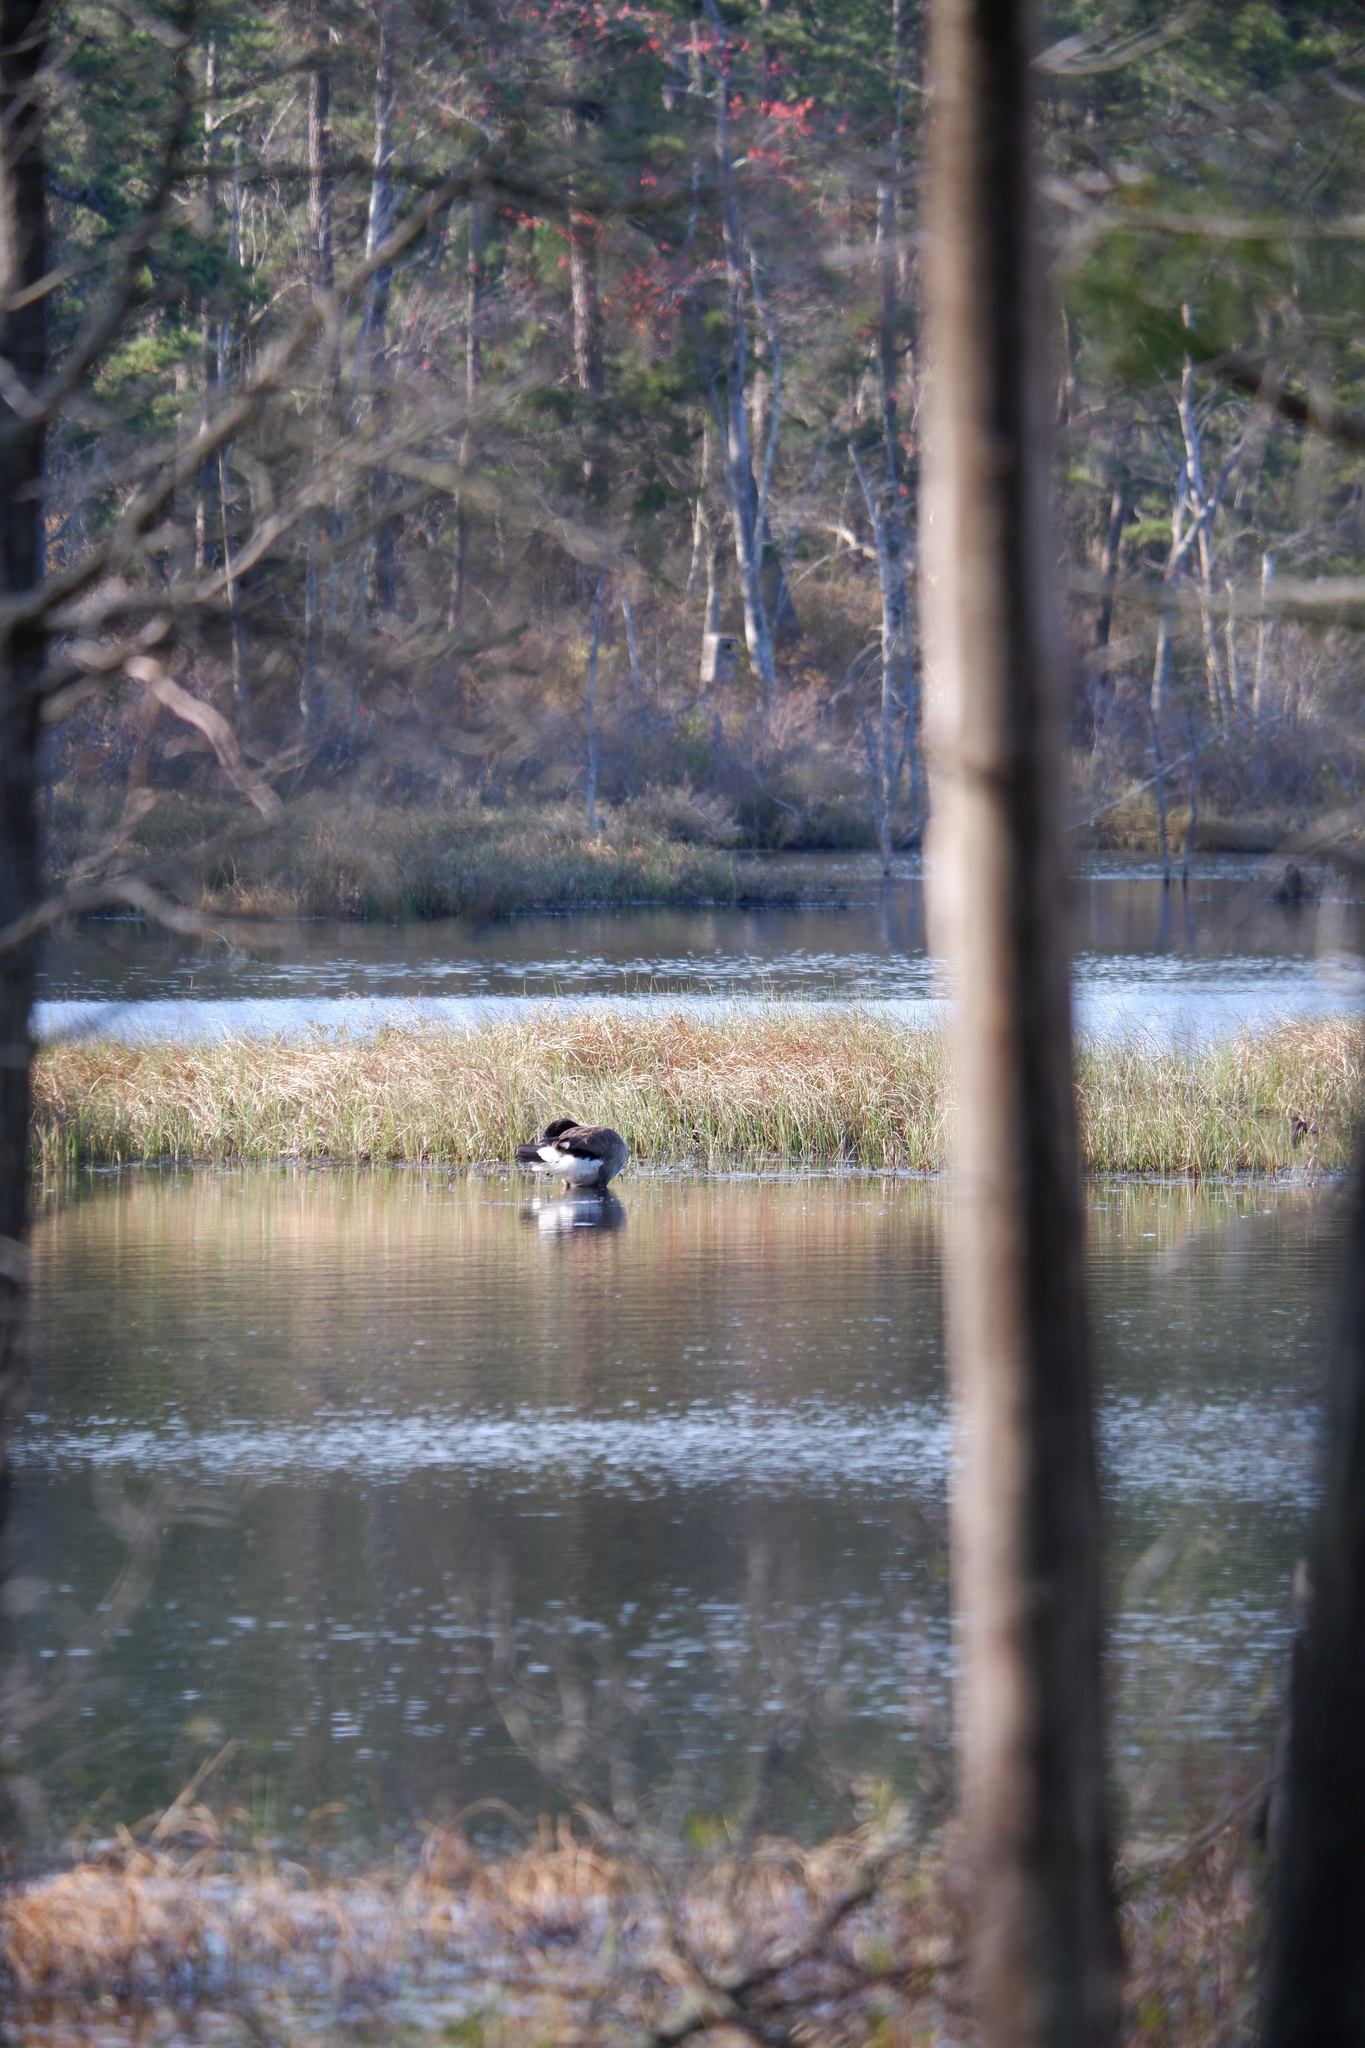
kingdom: Animalia
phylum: Chordata
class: Aves
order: Anseriformes
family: Anatidae
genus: Branta
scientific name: Branta canadensis
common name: Canada goose
